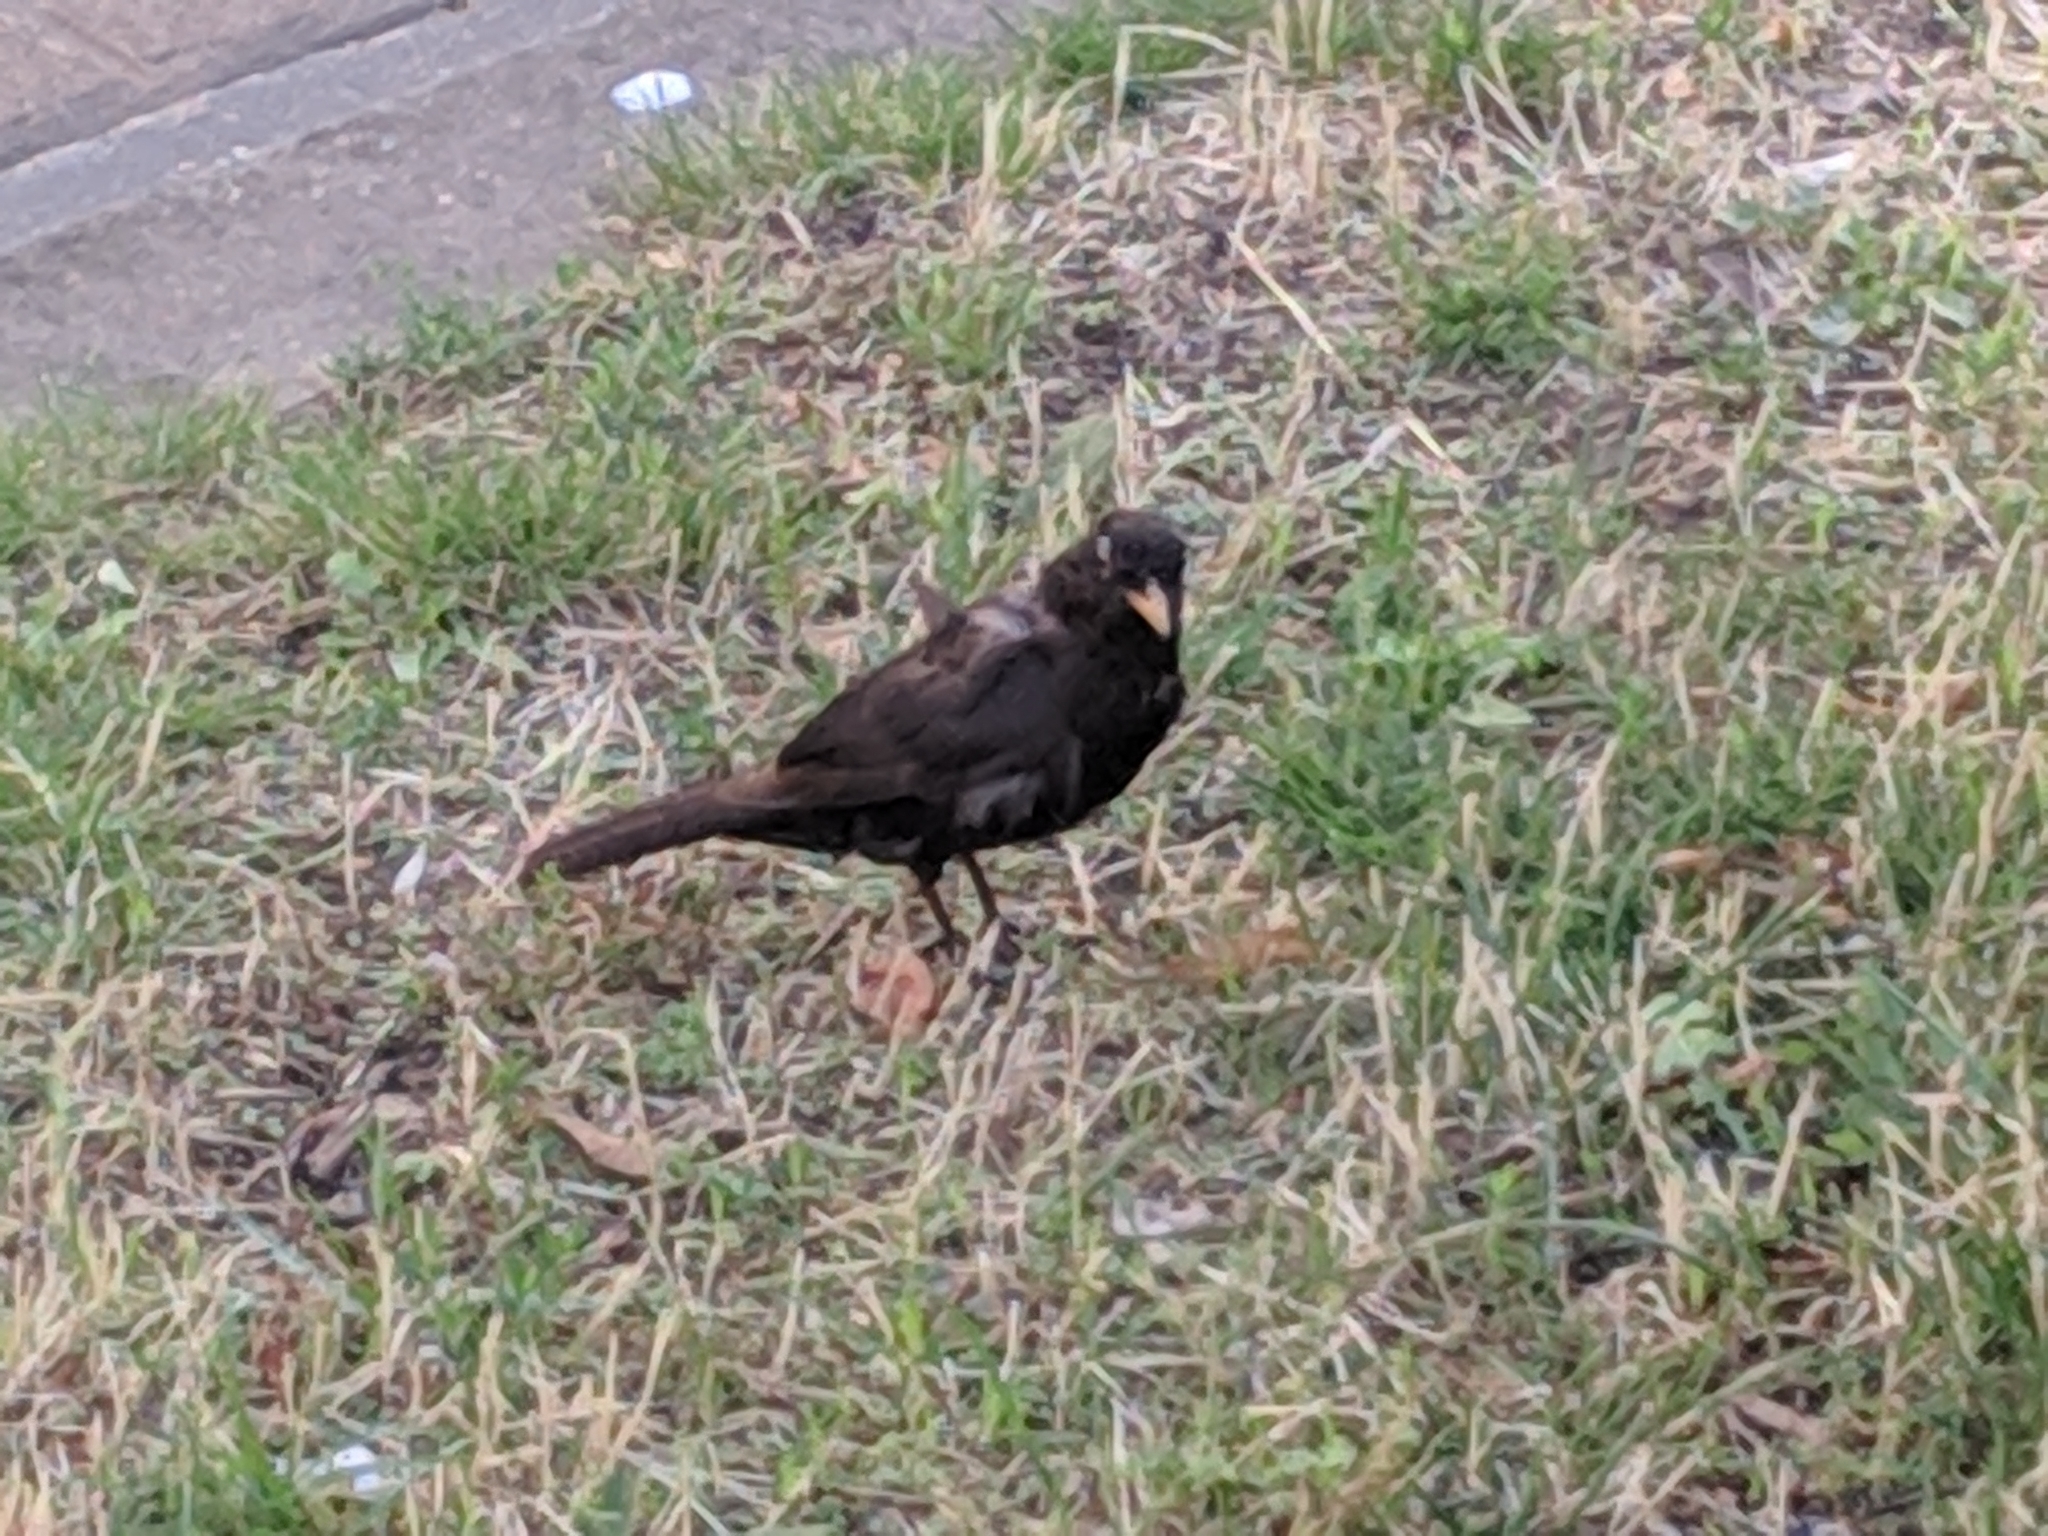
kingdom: Animalia
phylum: Chordata
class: Aves
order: Passeriformes
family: Turdidae
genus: Turdus
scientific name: Turdus merula
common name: Common blackbird
